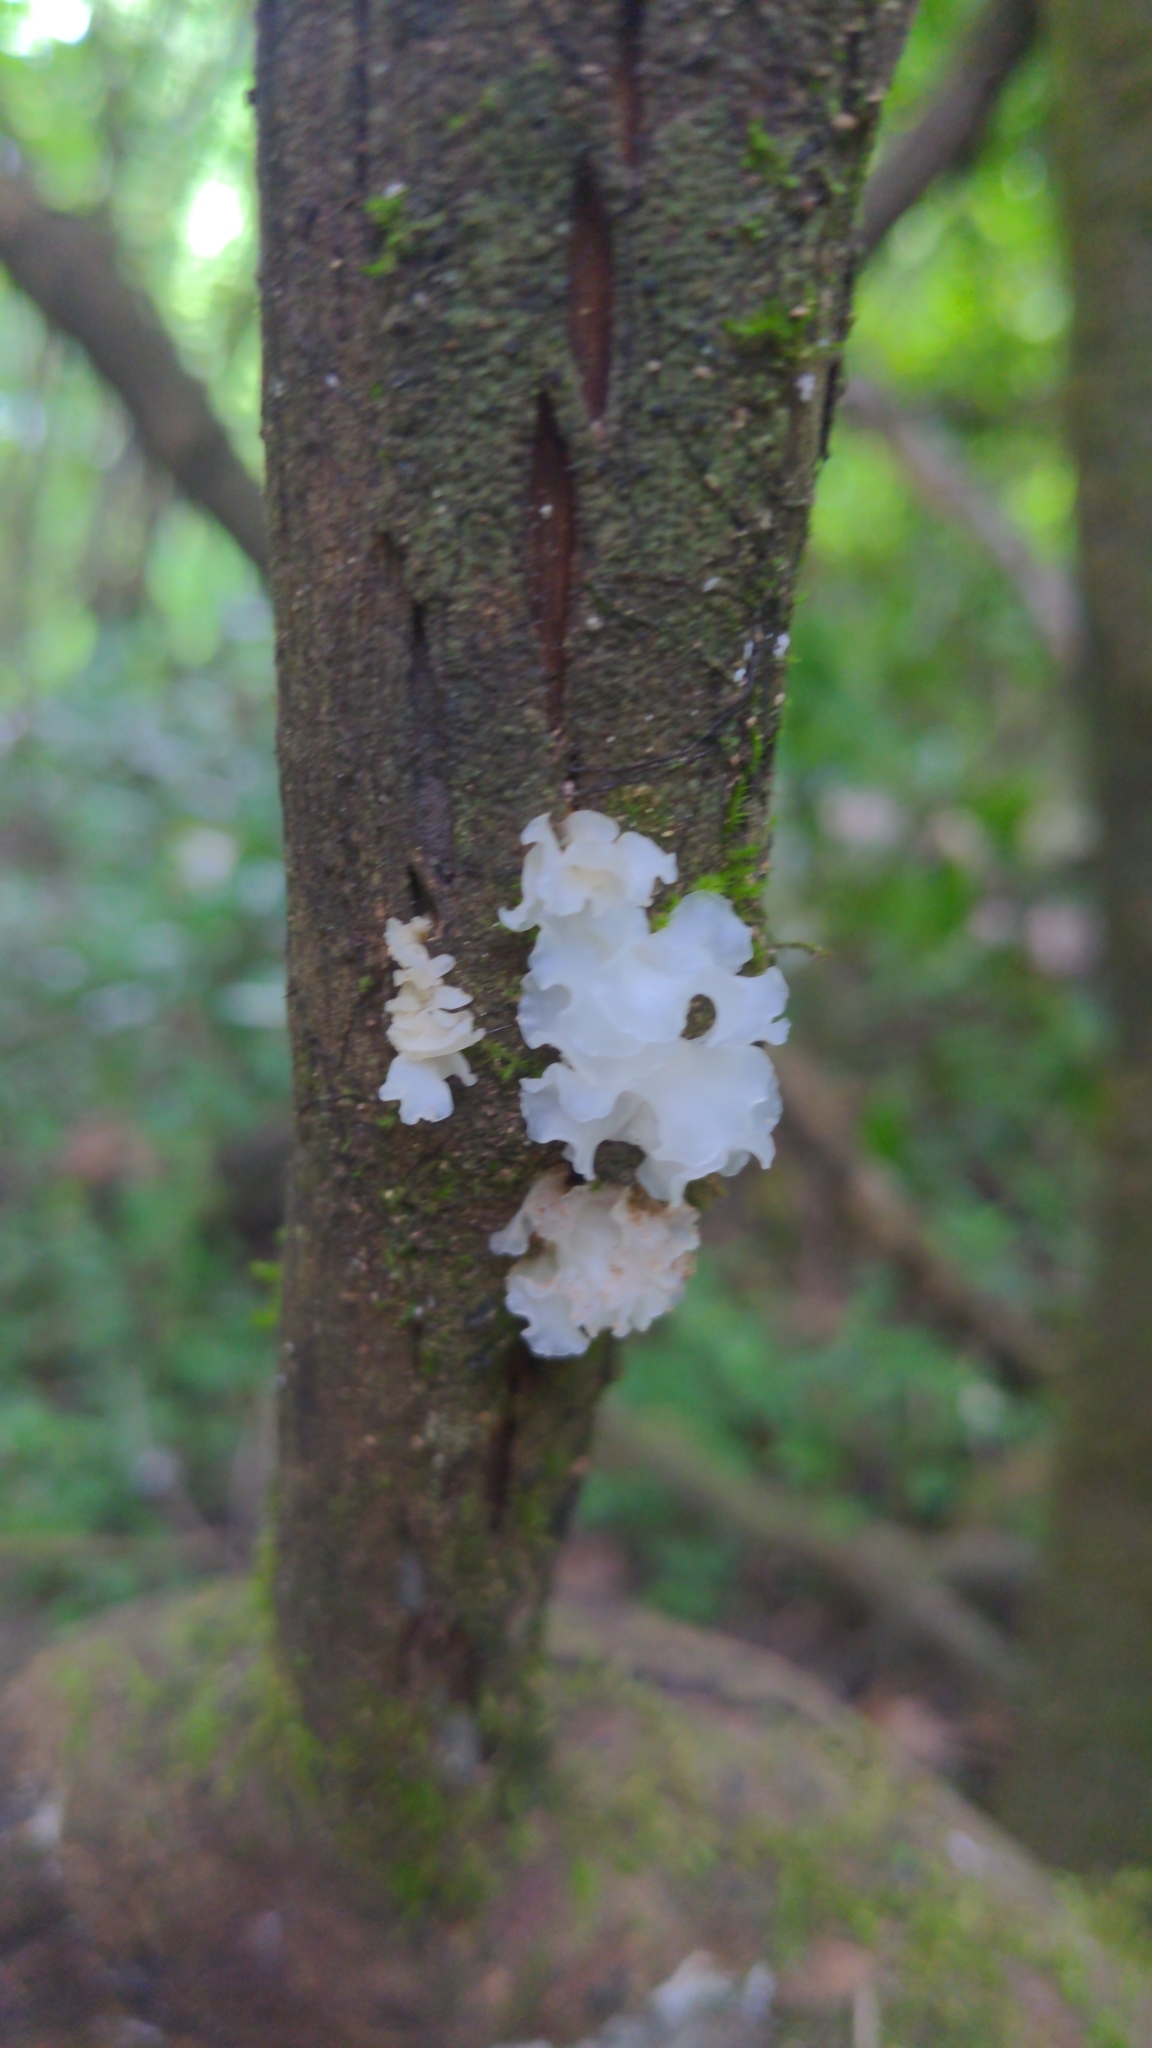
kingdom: Fungi
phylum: Basidiomycota
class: Tremellomycetes
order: Tremellales
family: Tremellaceae
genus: Tremella
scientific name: Tremella fuciformis
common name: Snow fungus
